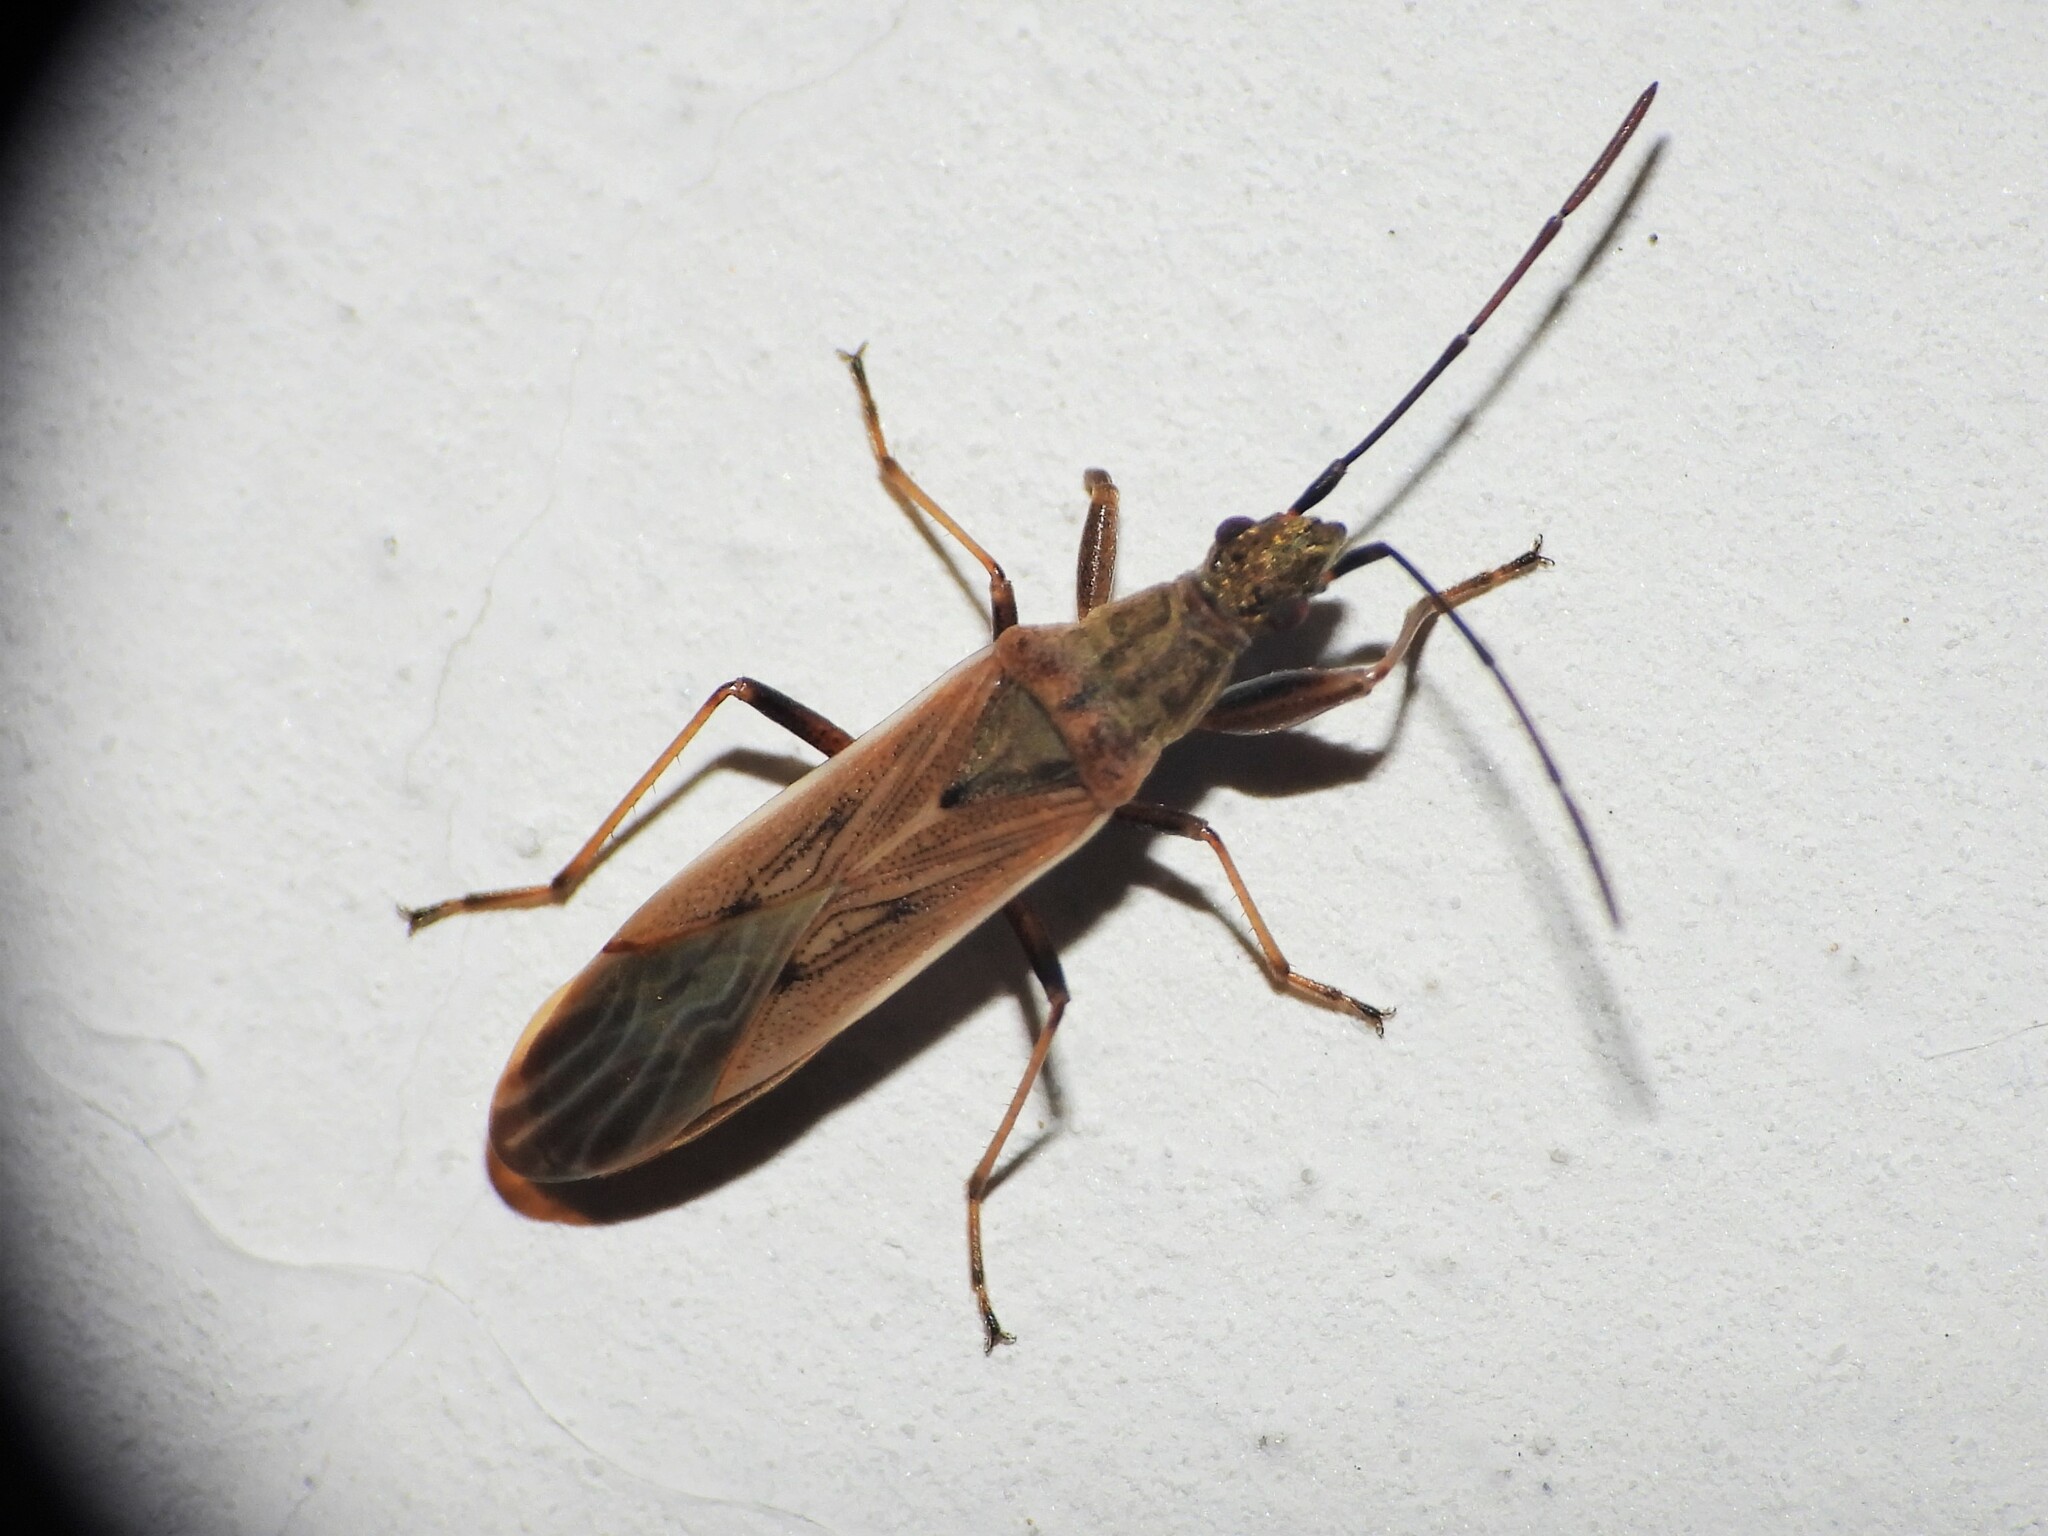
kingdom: Animalia
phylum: Arthropoda
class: Insecta
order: Hemiptera
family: Rhyparochromidae
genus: Paromius
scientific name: Paromius gracilis
